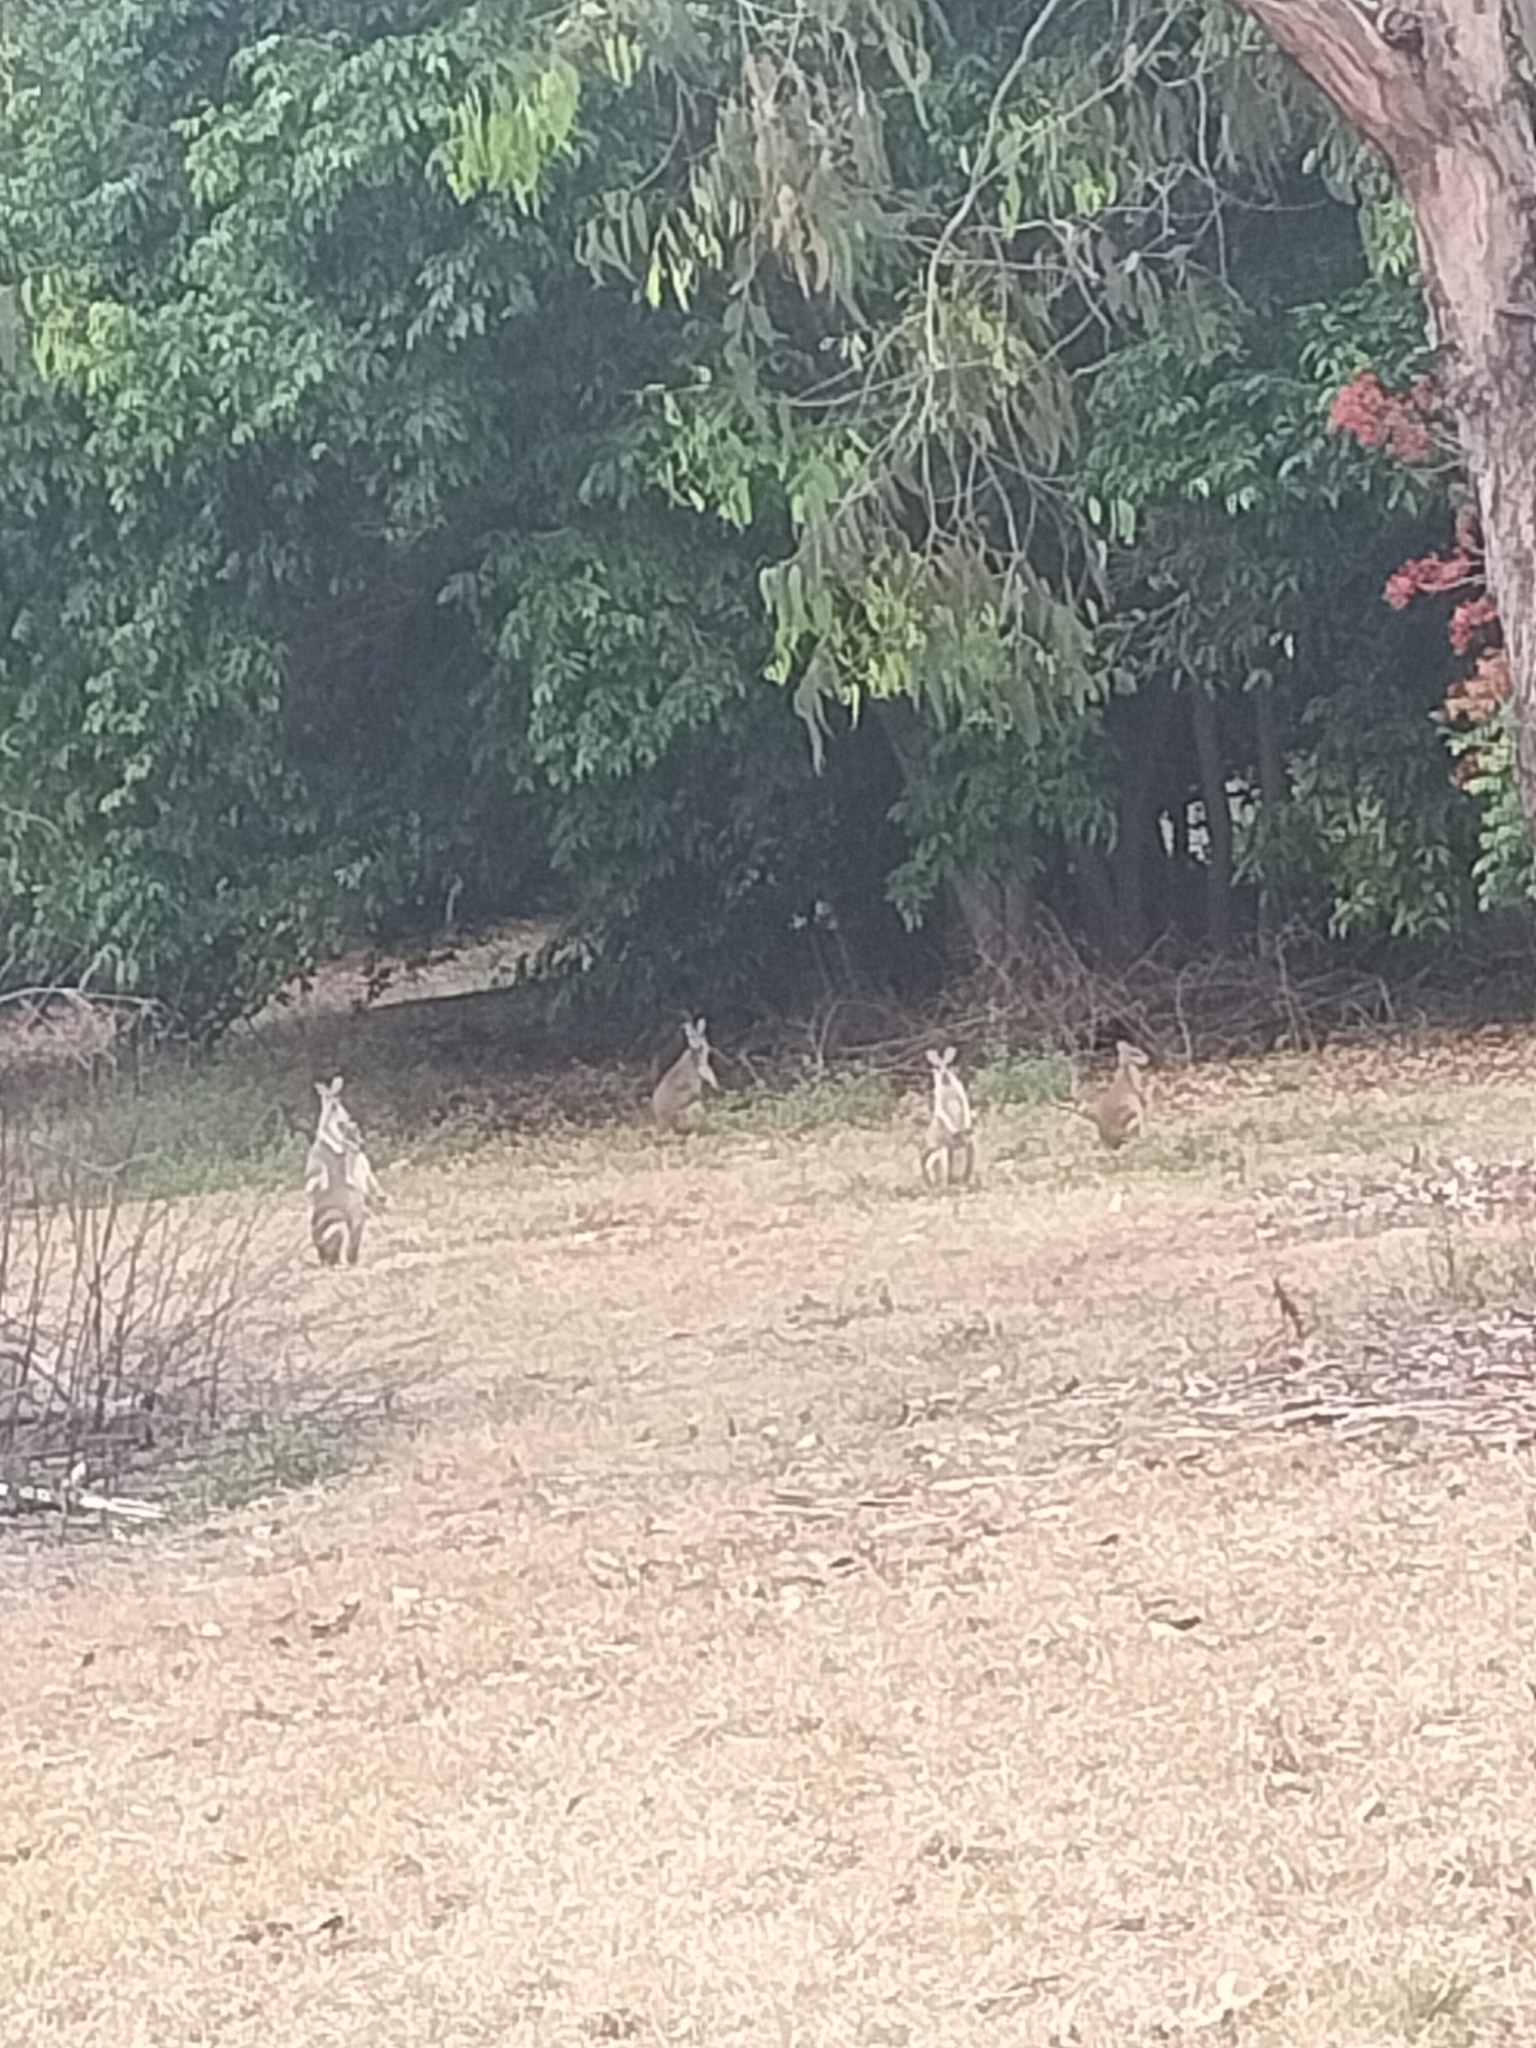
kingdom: Animalia
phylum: Chordata
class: Mammalia
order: Diprotodontia
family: Macropodidae
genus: Macropus
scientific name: Macropus agilis
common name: Agile wallaby
